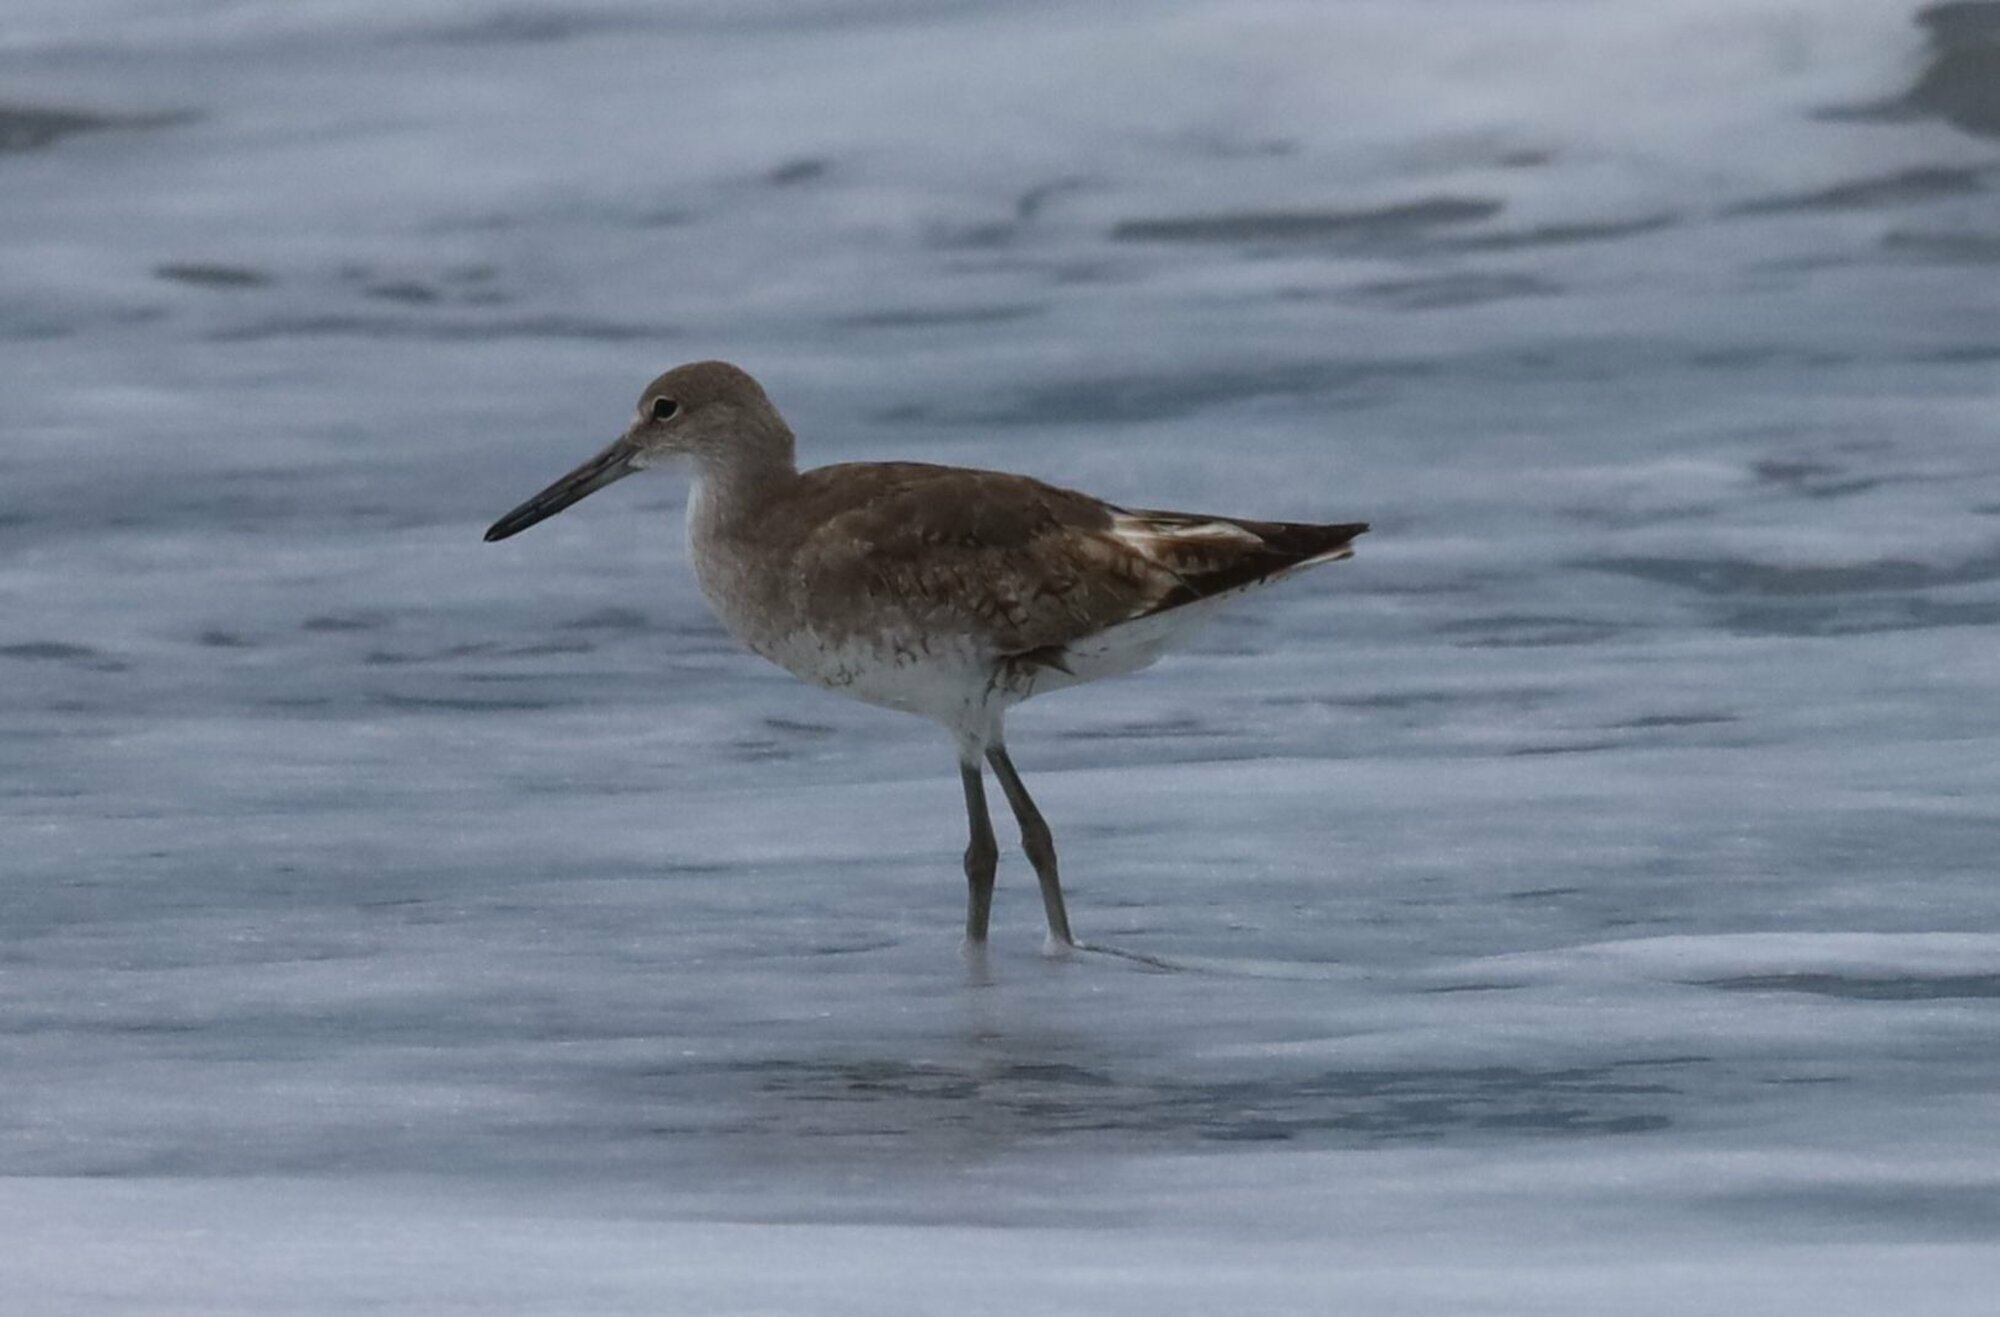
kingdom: Animalia
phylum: Chordata
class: Aves
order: Charadriiformes
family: Scolopacidae
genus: Tringa
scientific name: Tringa semipalmata
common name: Willet
